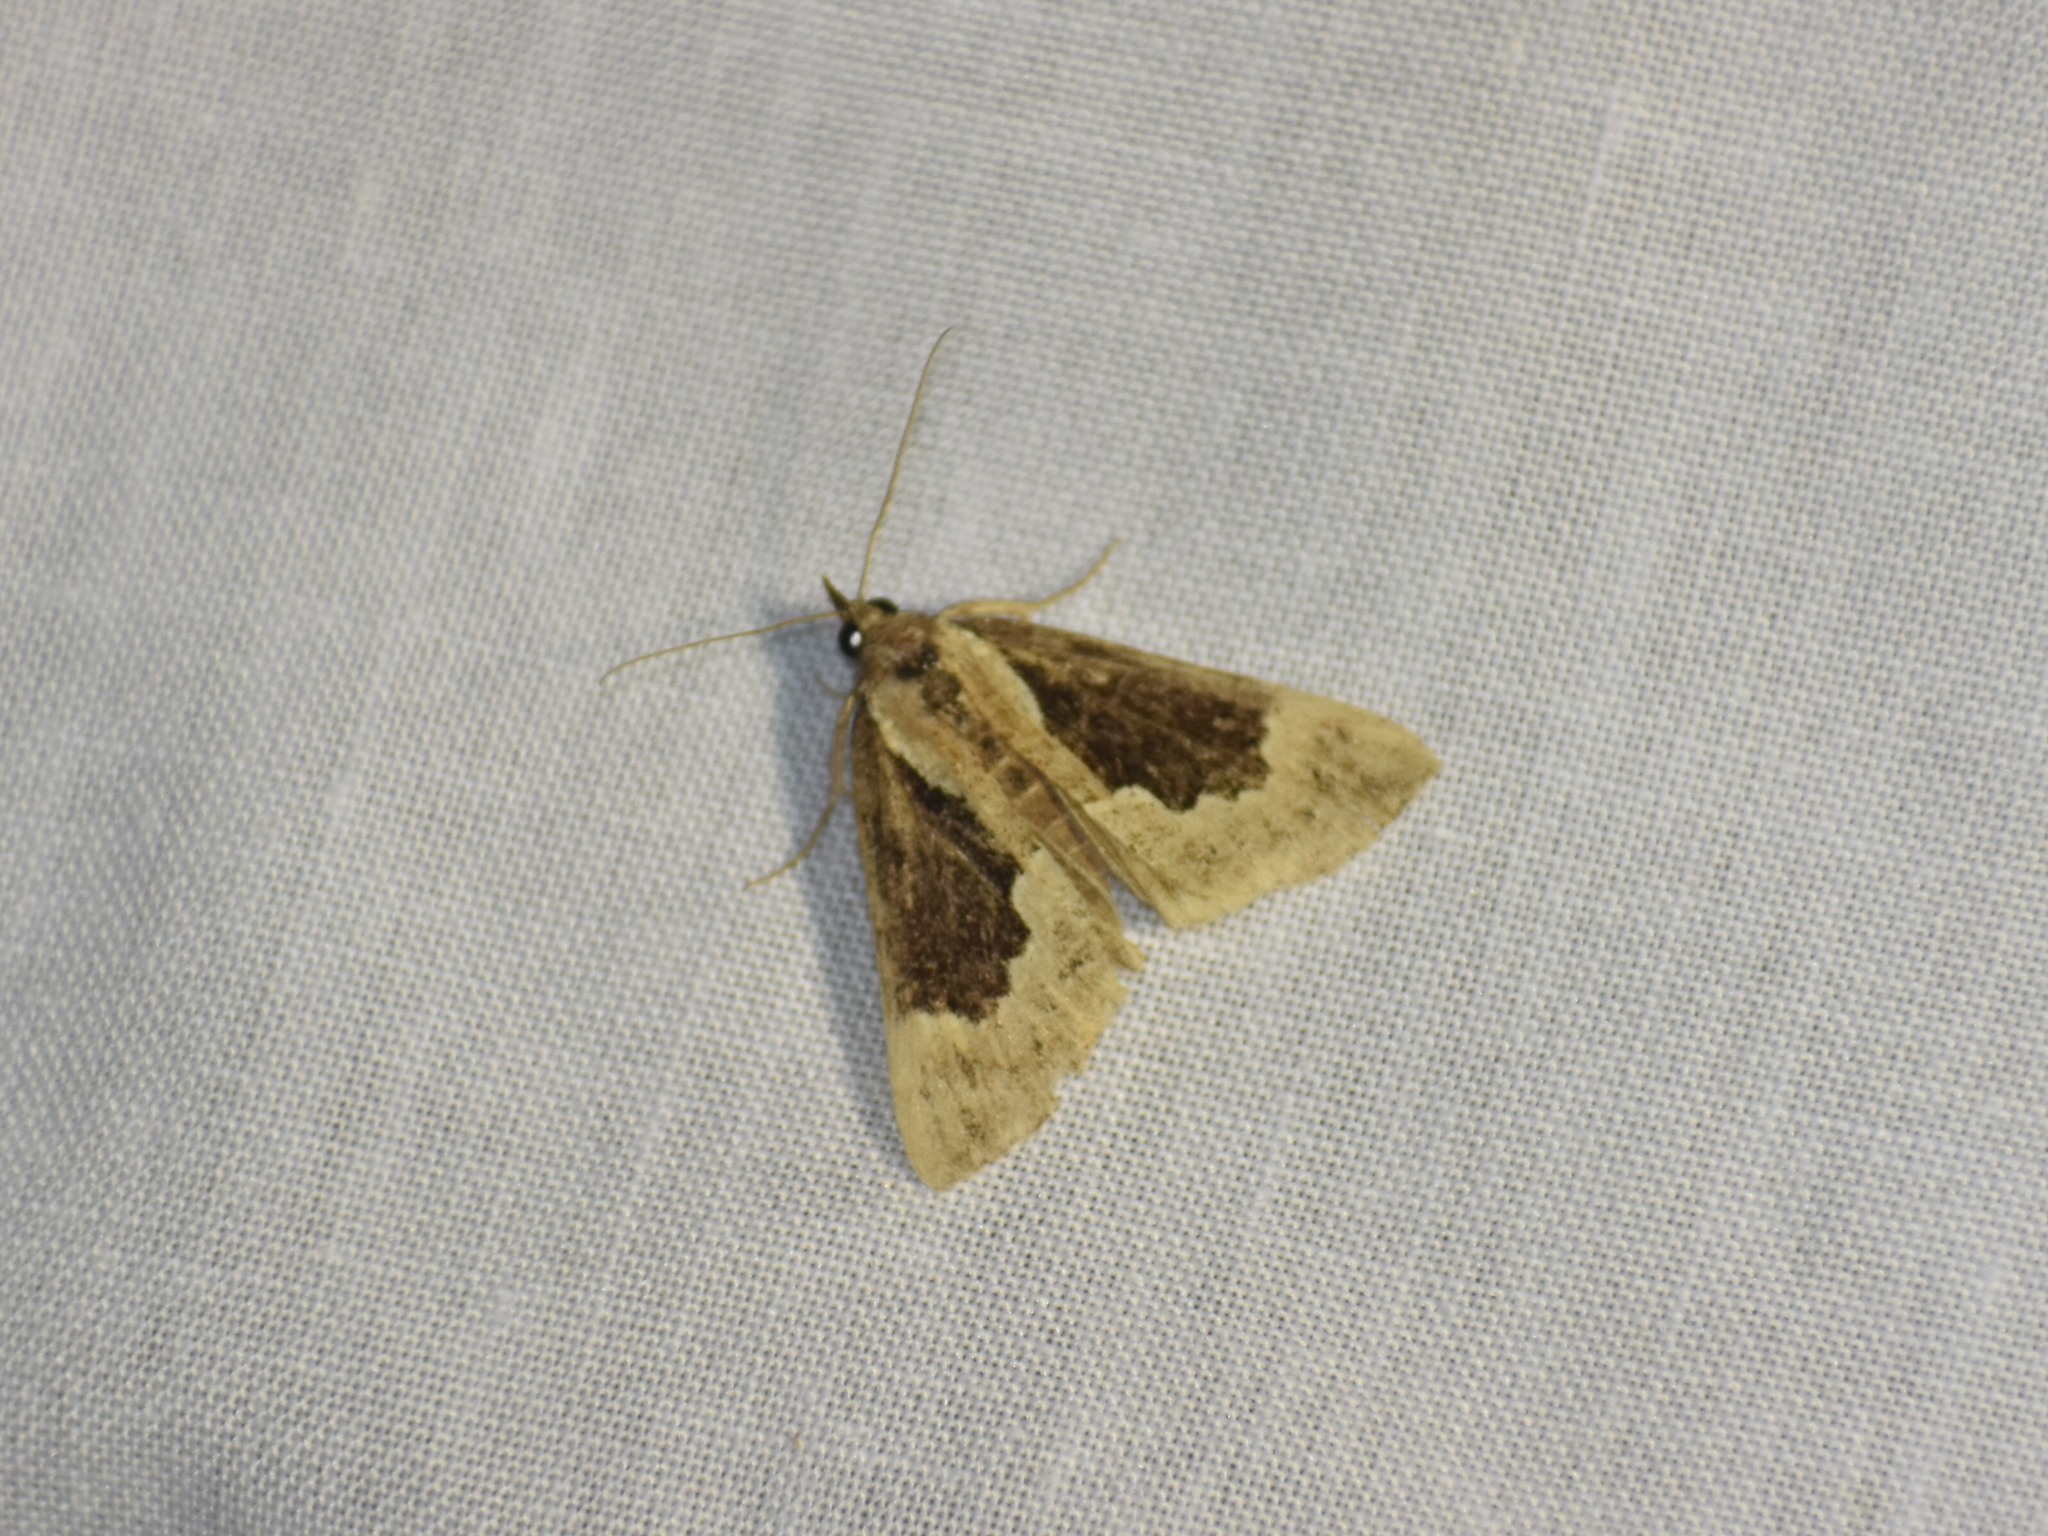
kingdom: Animalia
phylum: Arthropoda
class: Insecta
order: Lepidoptera
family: Erebidae
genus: Hypena
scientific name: Hypena baltimoralis
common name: Baltimore snout
